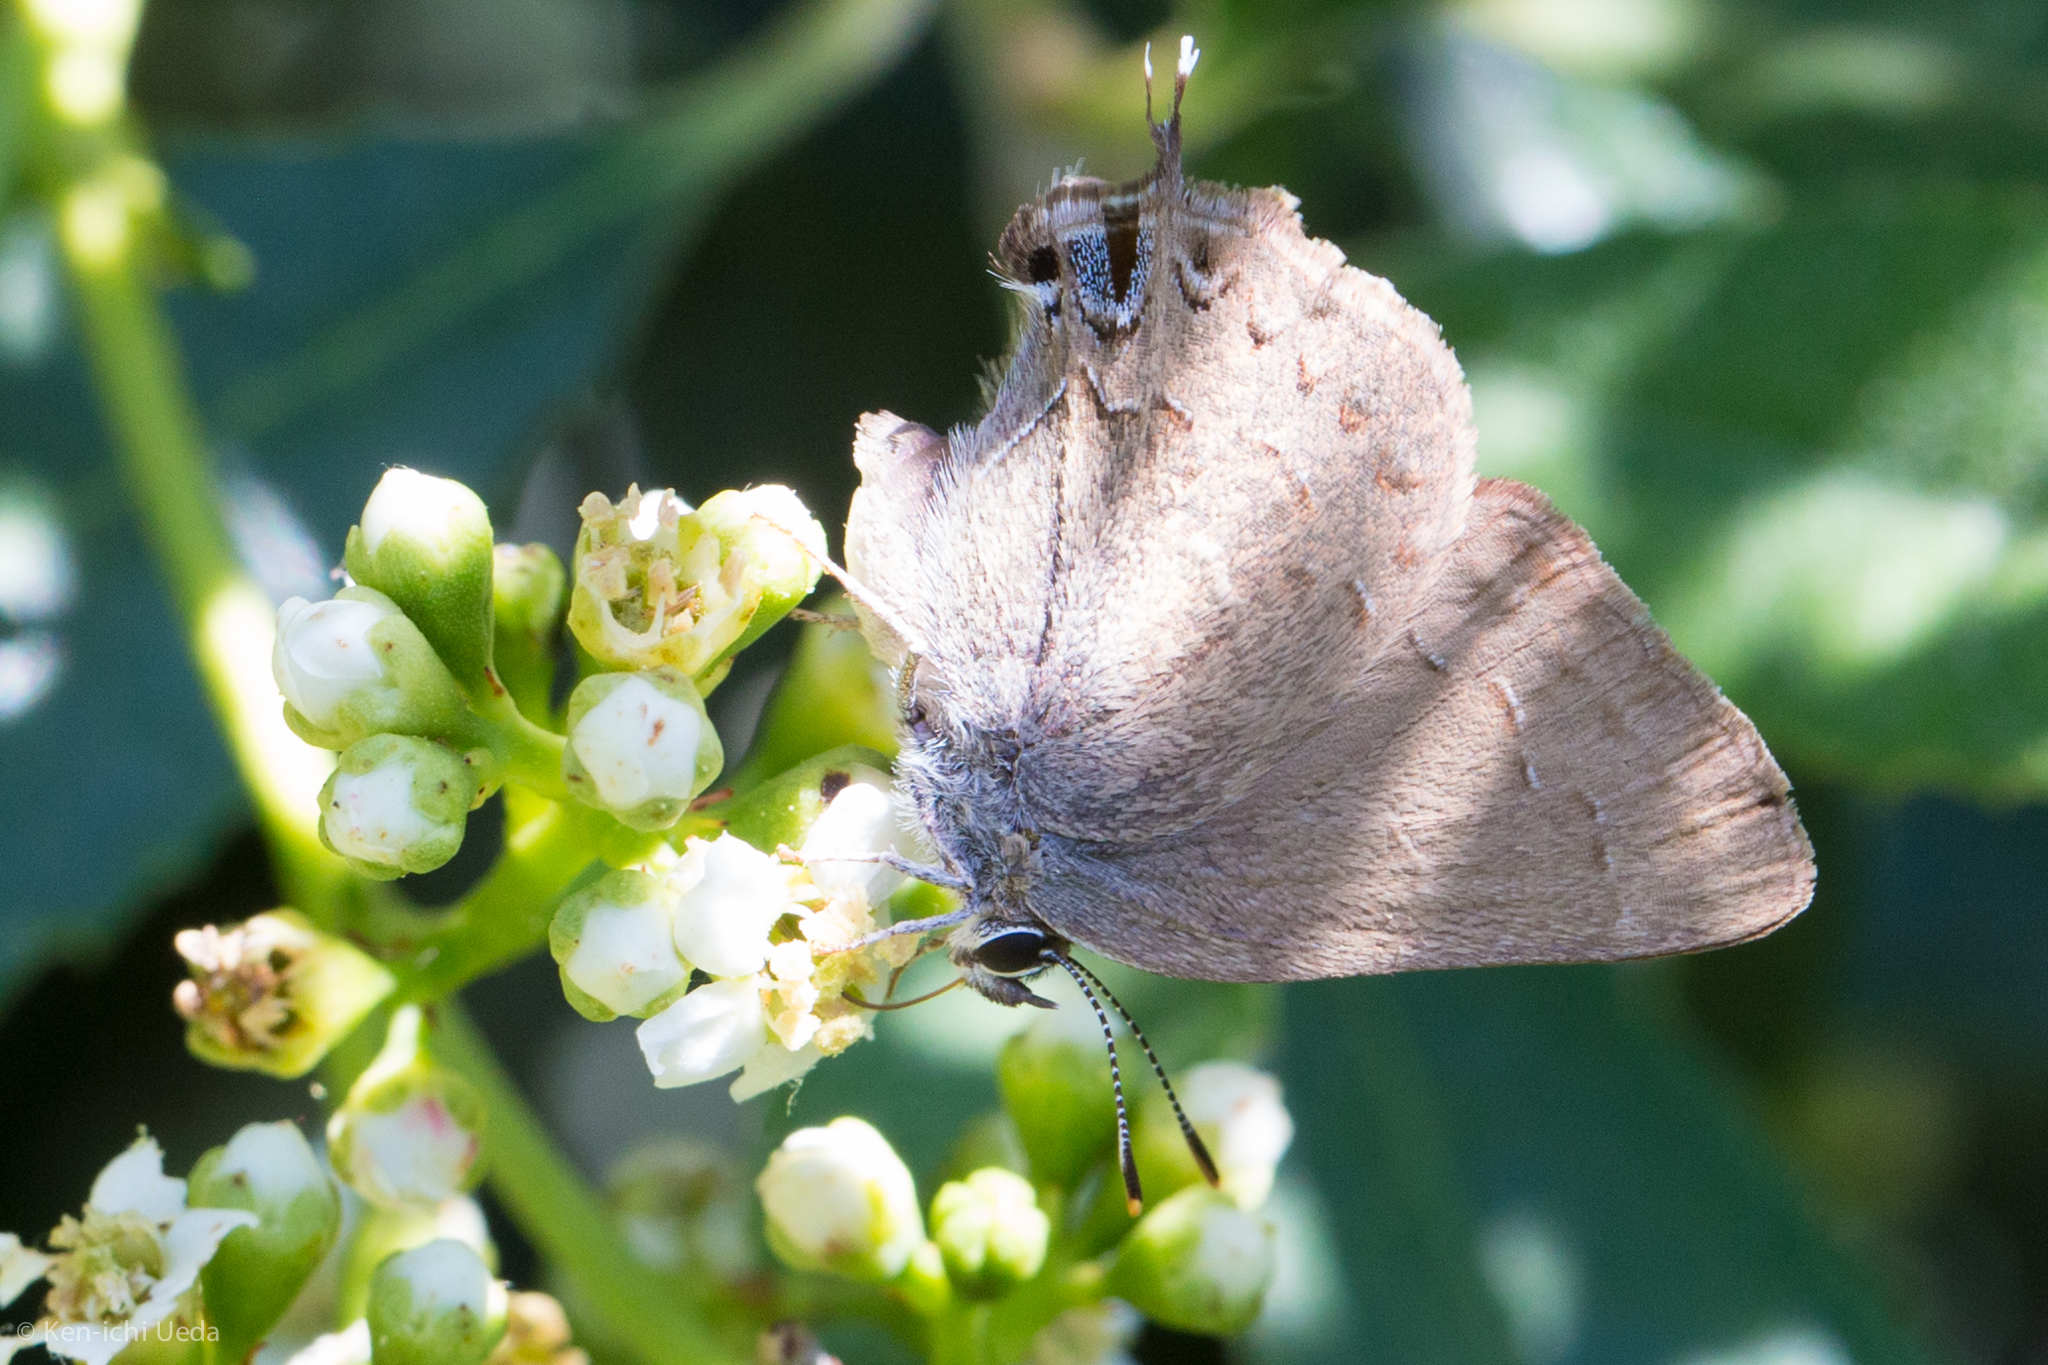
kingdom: Animalia
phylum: Arthropoda
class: Insecta
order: Lepidoptera
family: Lycaenidae
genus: Strymon
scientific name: Strymon saepium
